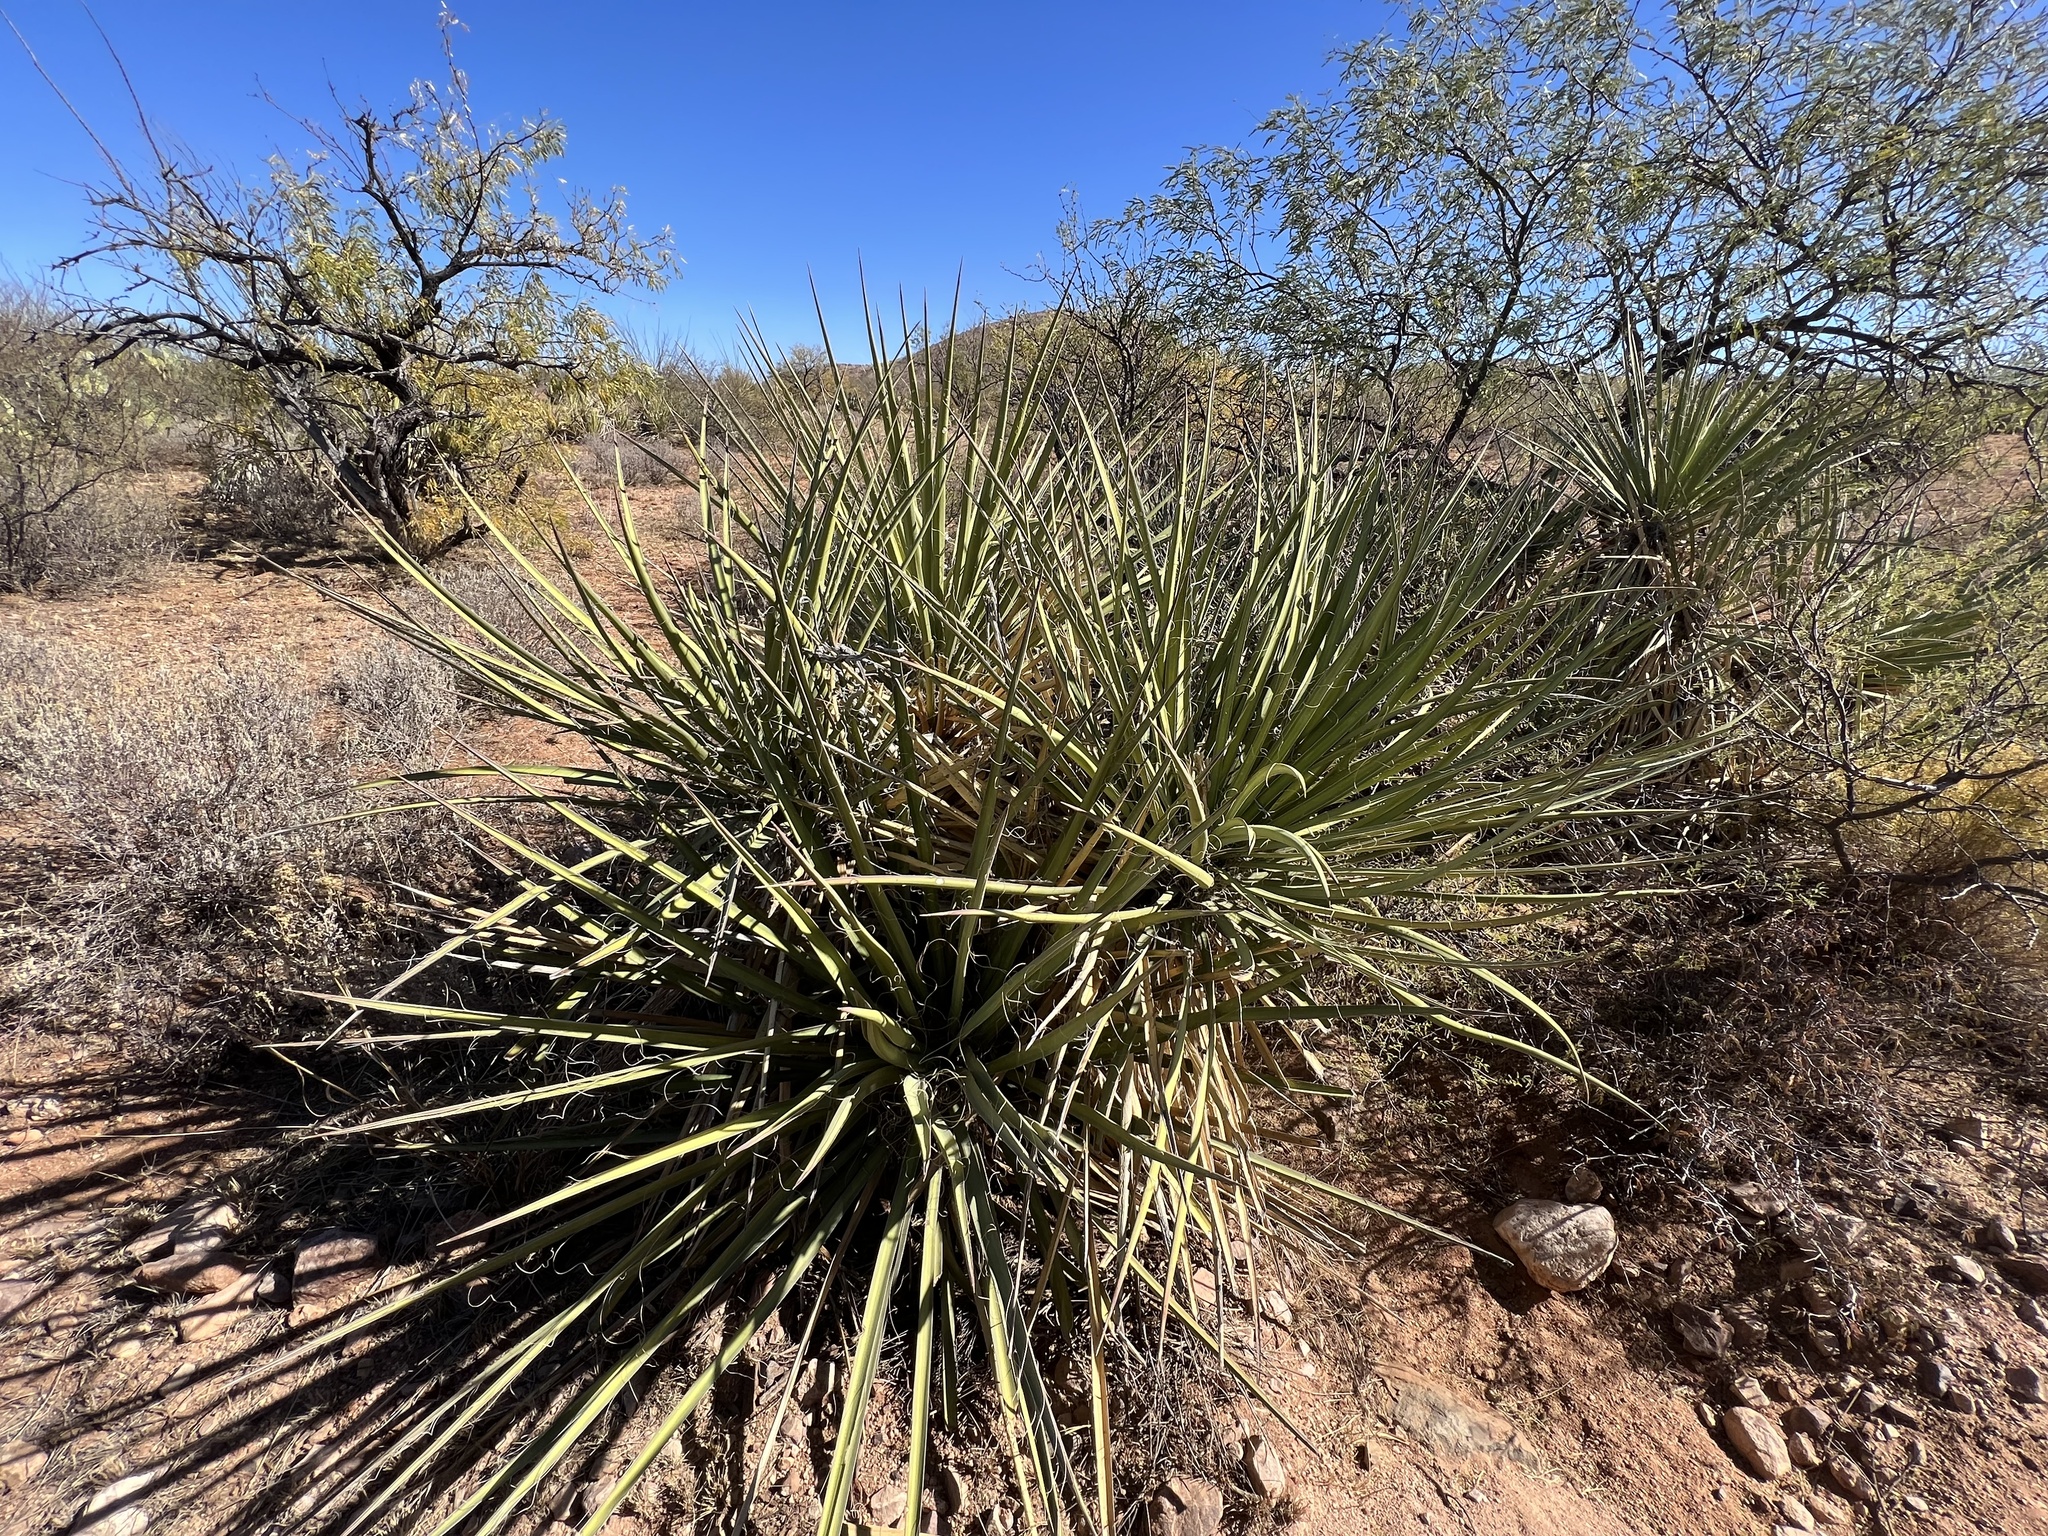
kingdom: Plantae
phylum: Tracheophyta
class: Liliopsida
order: Asparagales
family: Asparagaceae
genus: Yucca
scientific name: Yucca baccata
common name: Banana yucca
